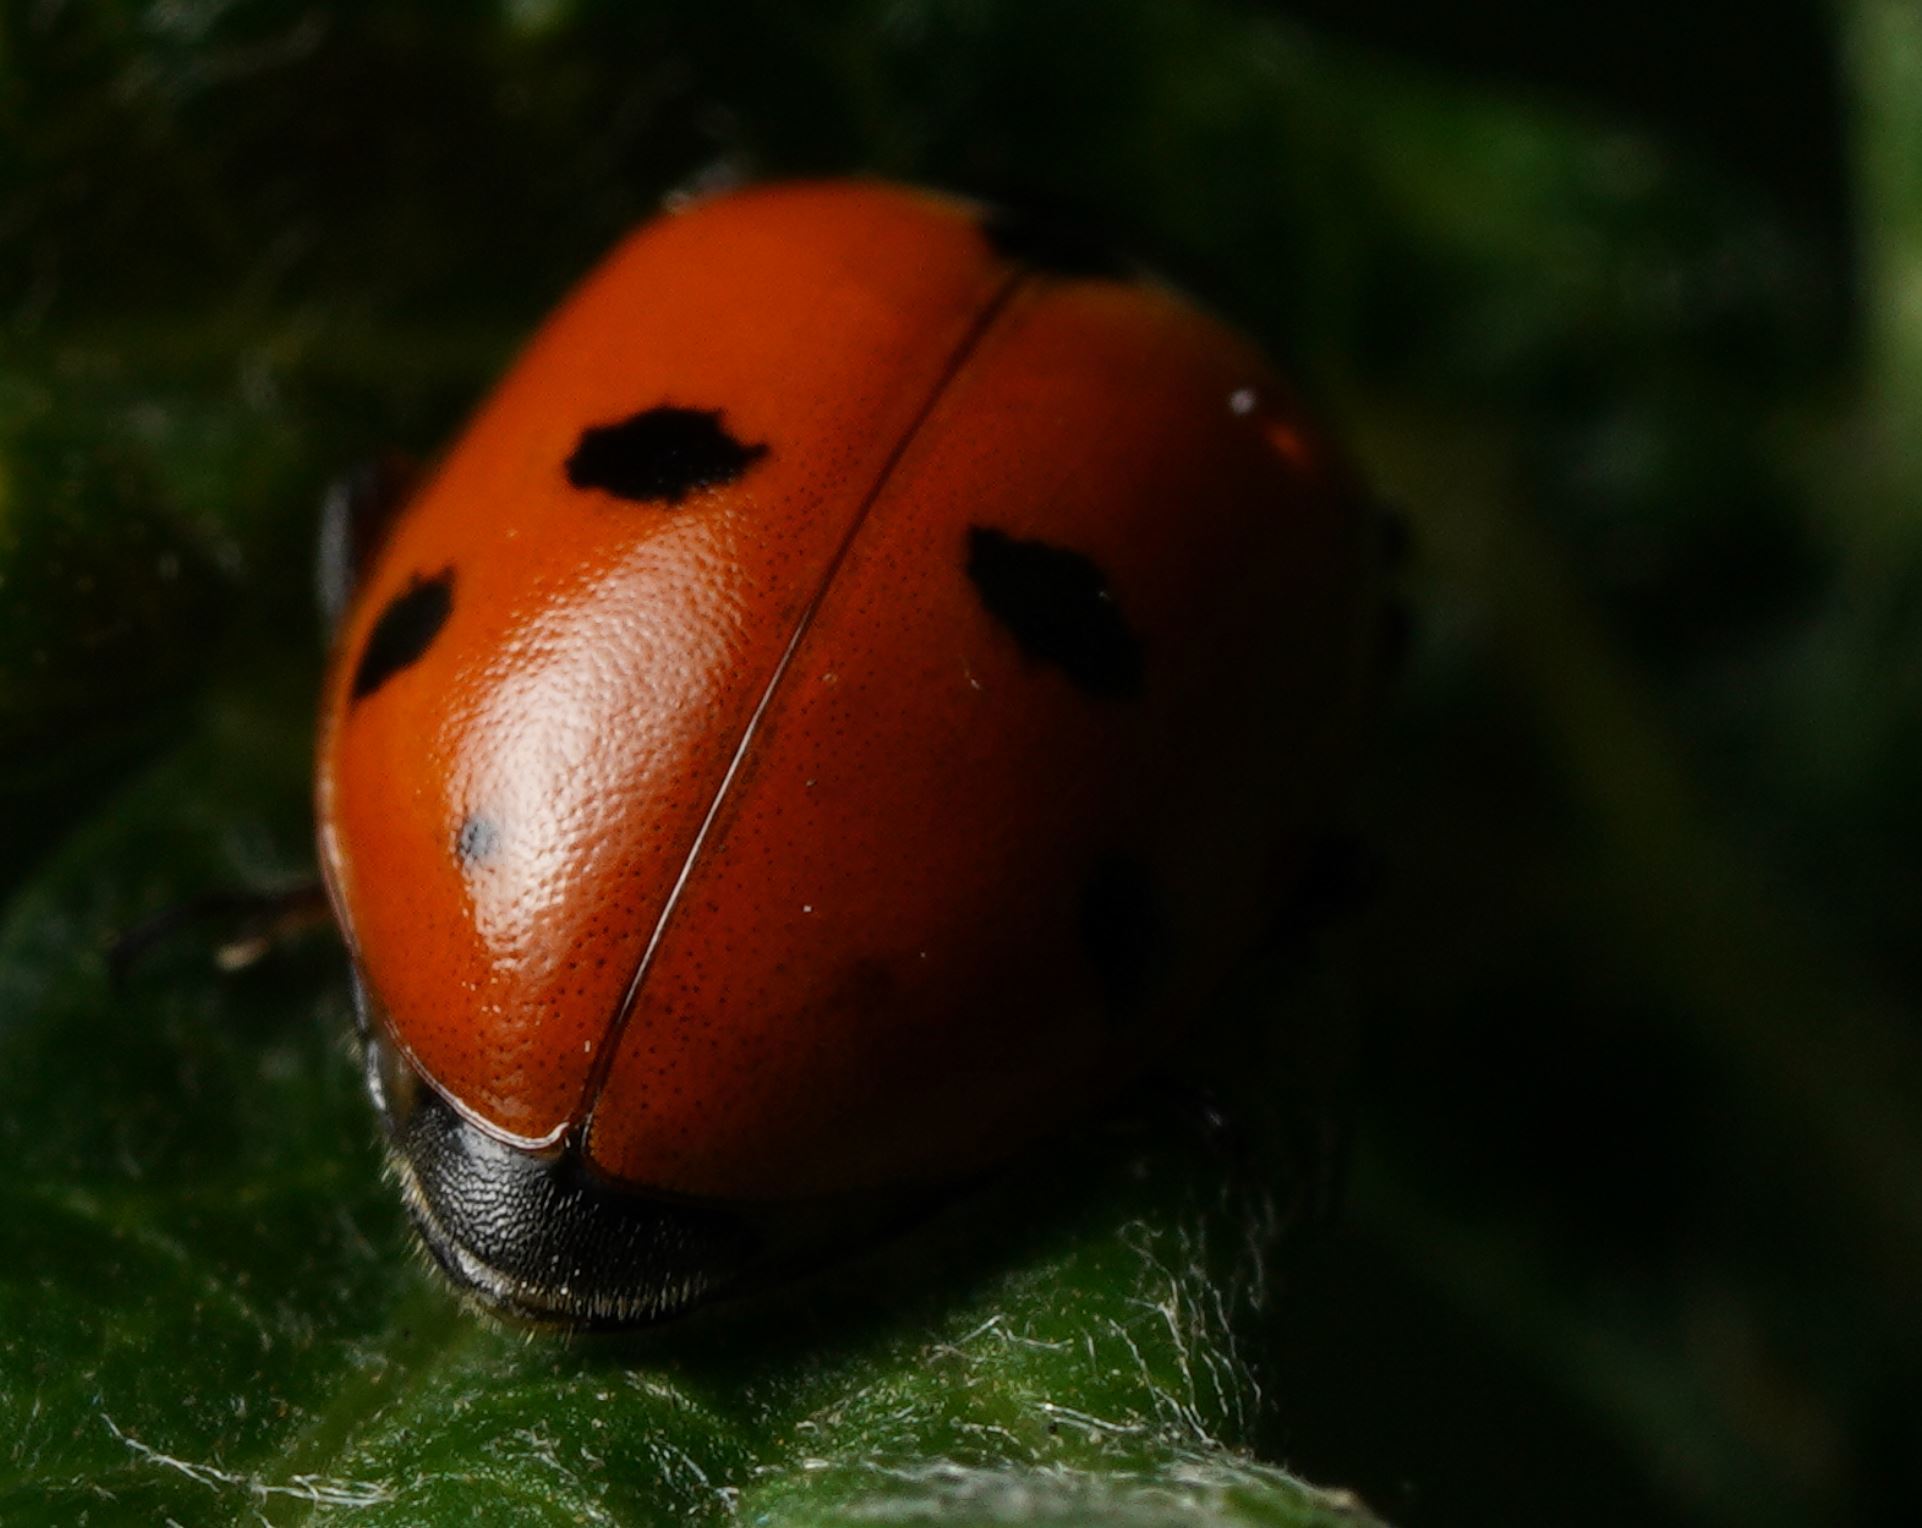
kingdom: Animalia
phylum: Arthropoda
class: Insecta
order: Coleoptera
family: Coccinellidae
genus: Hippodamia
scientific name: Hippodamia
